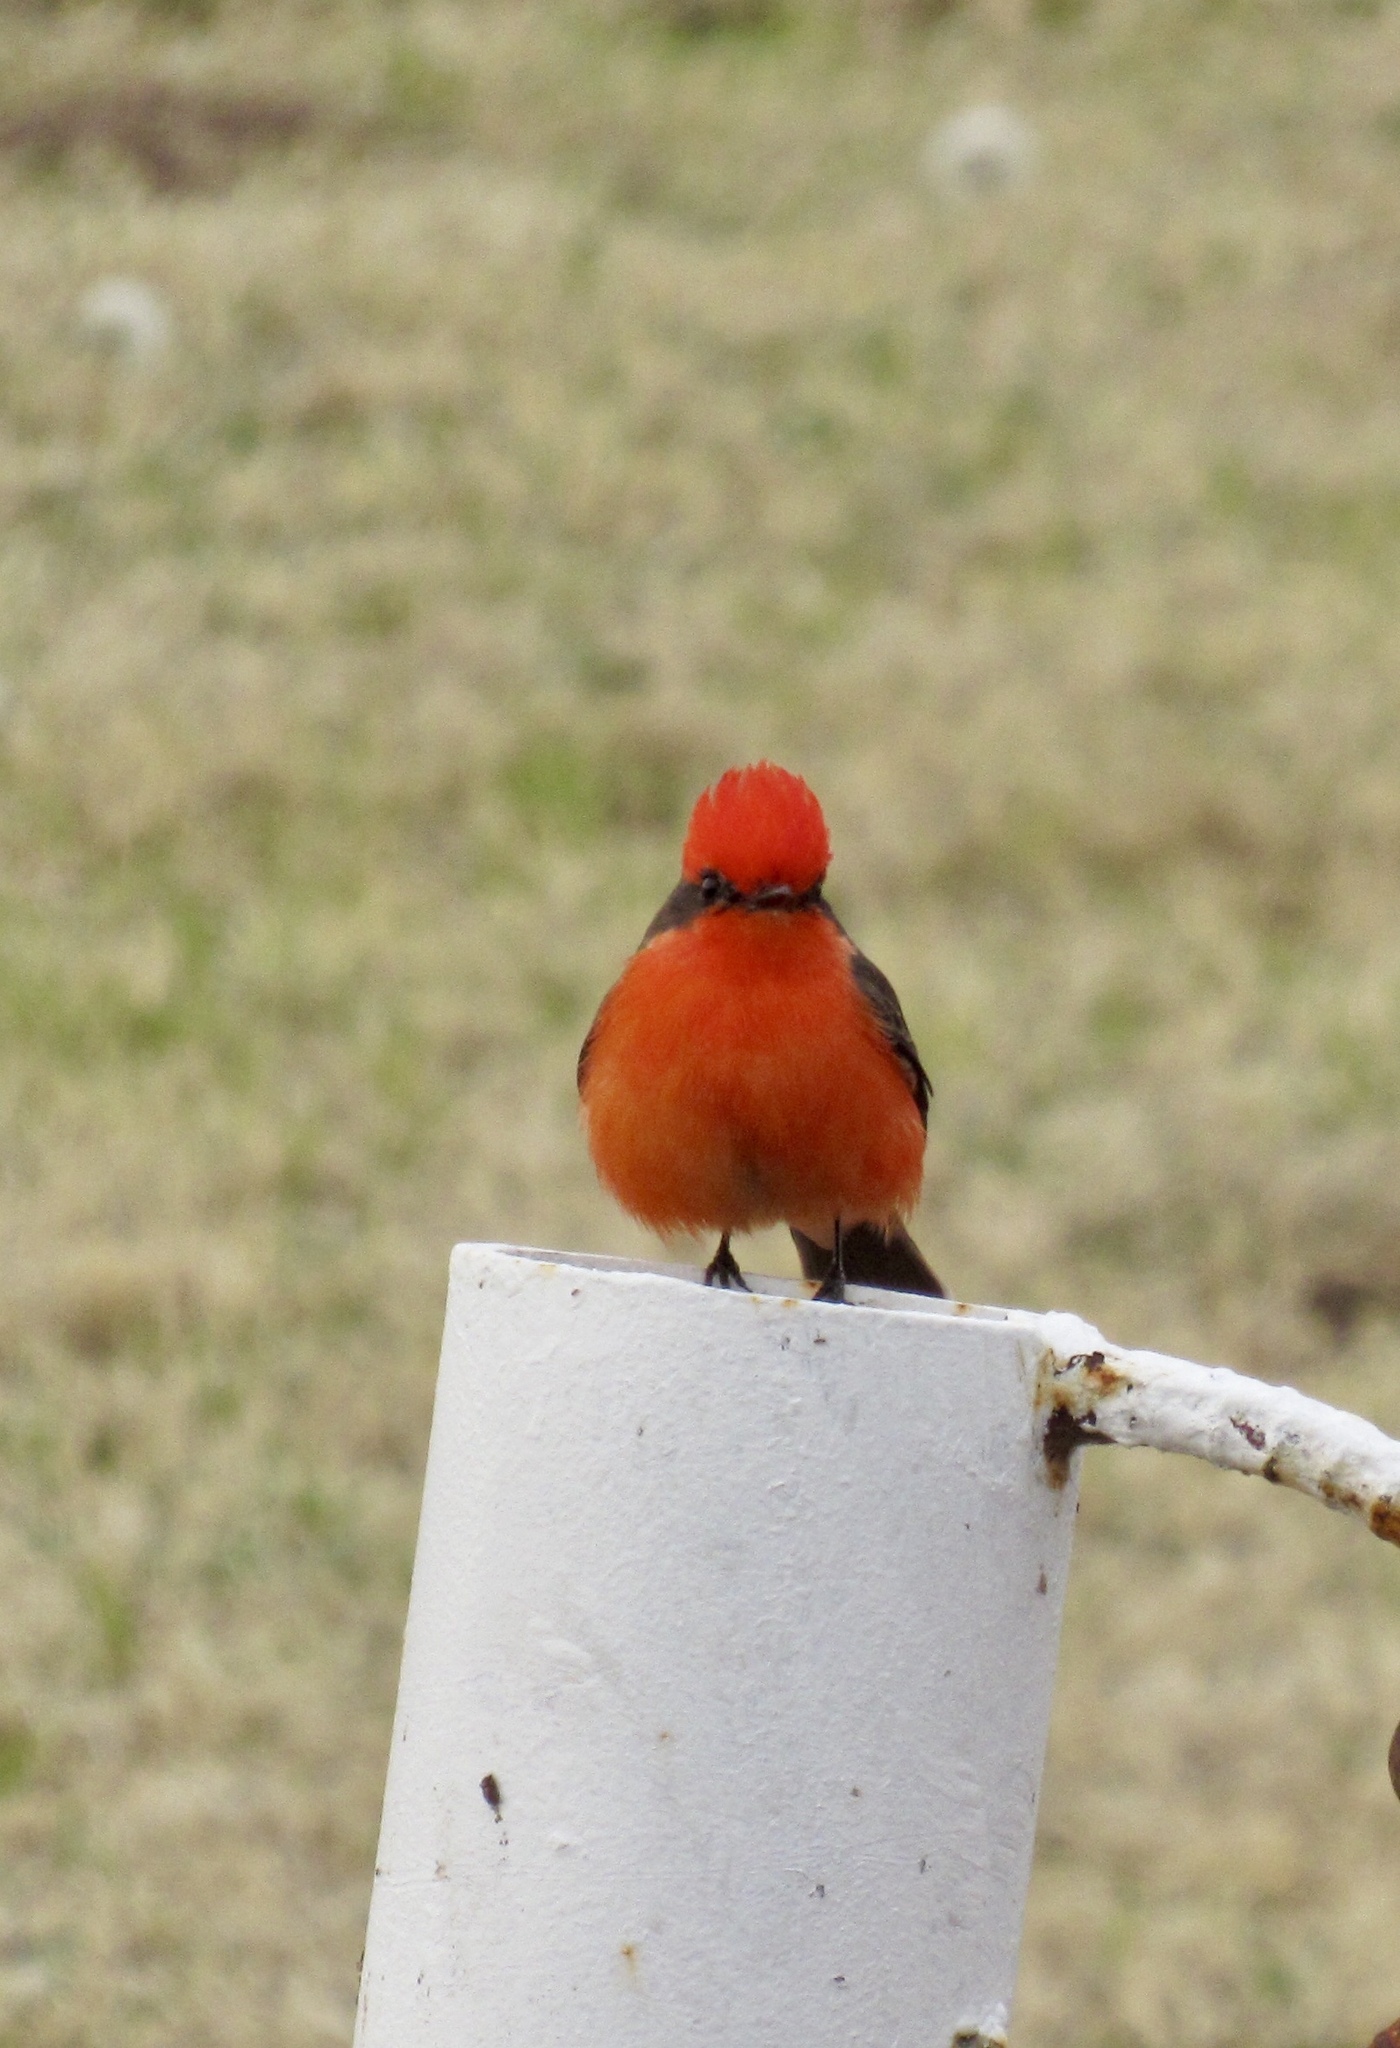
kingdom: Animalia
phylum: Chordata
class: Aves
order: Passeriformes
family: Tyrannidae
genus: Pyrocephalus
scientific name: Pyrocephalus rubinus
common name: Vermilion flycatcher
